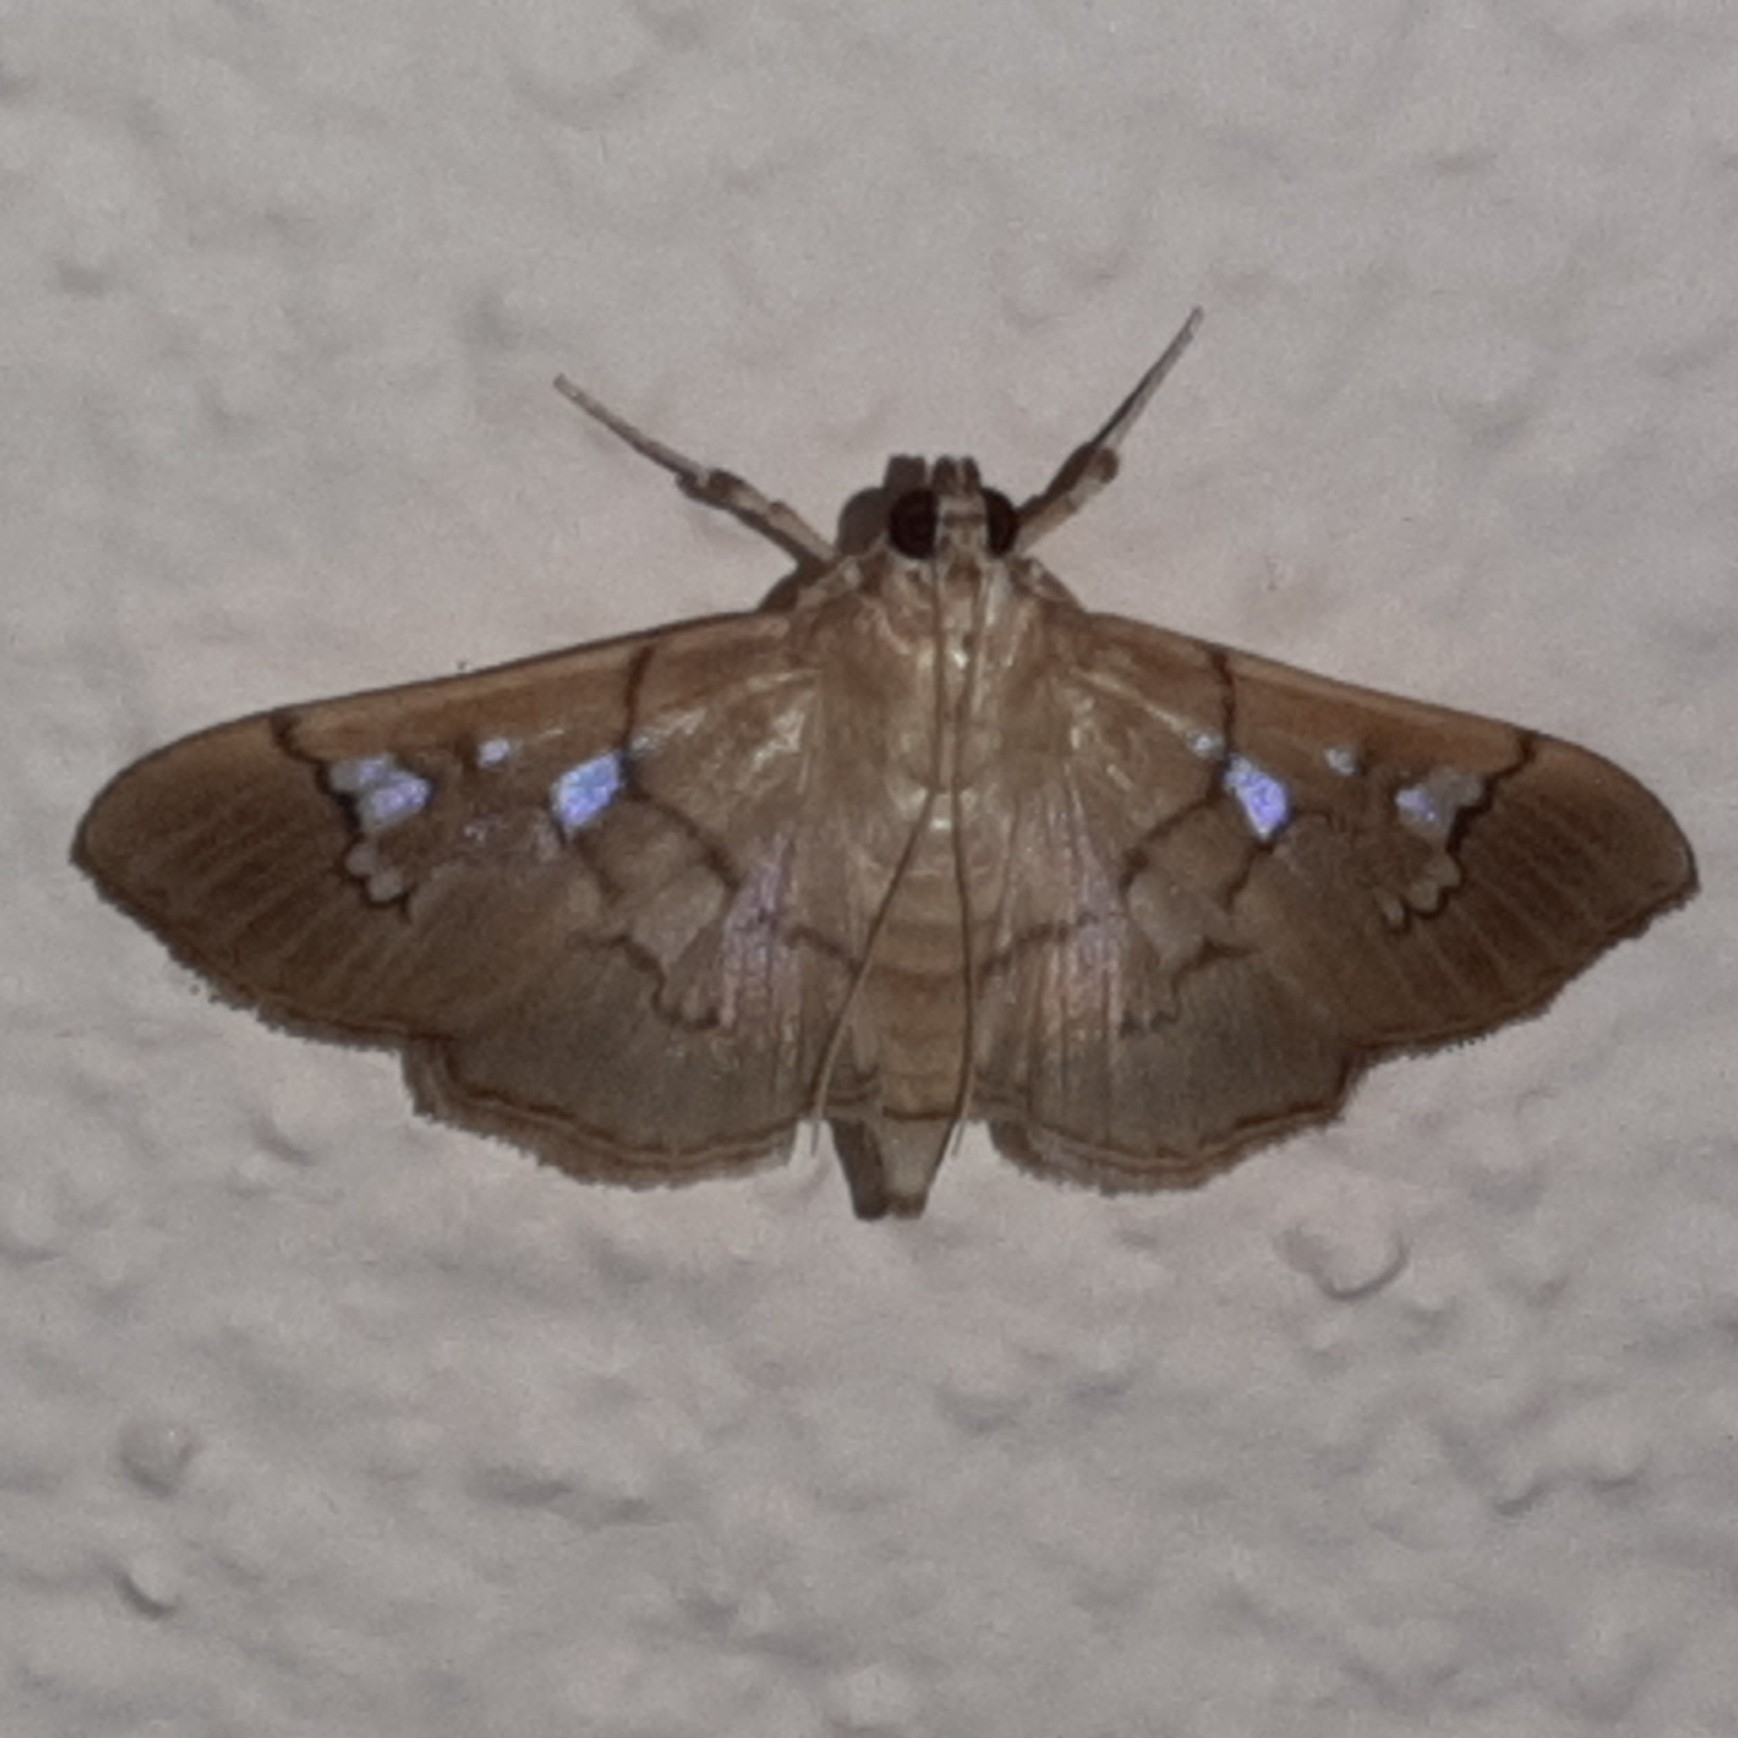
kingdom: Animalia
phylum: Arthropoda
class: Insecta
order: Lepidoptera
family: Crambidae
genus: Microthyris
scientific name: Microthyris prolongalis
